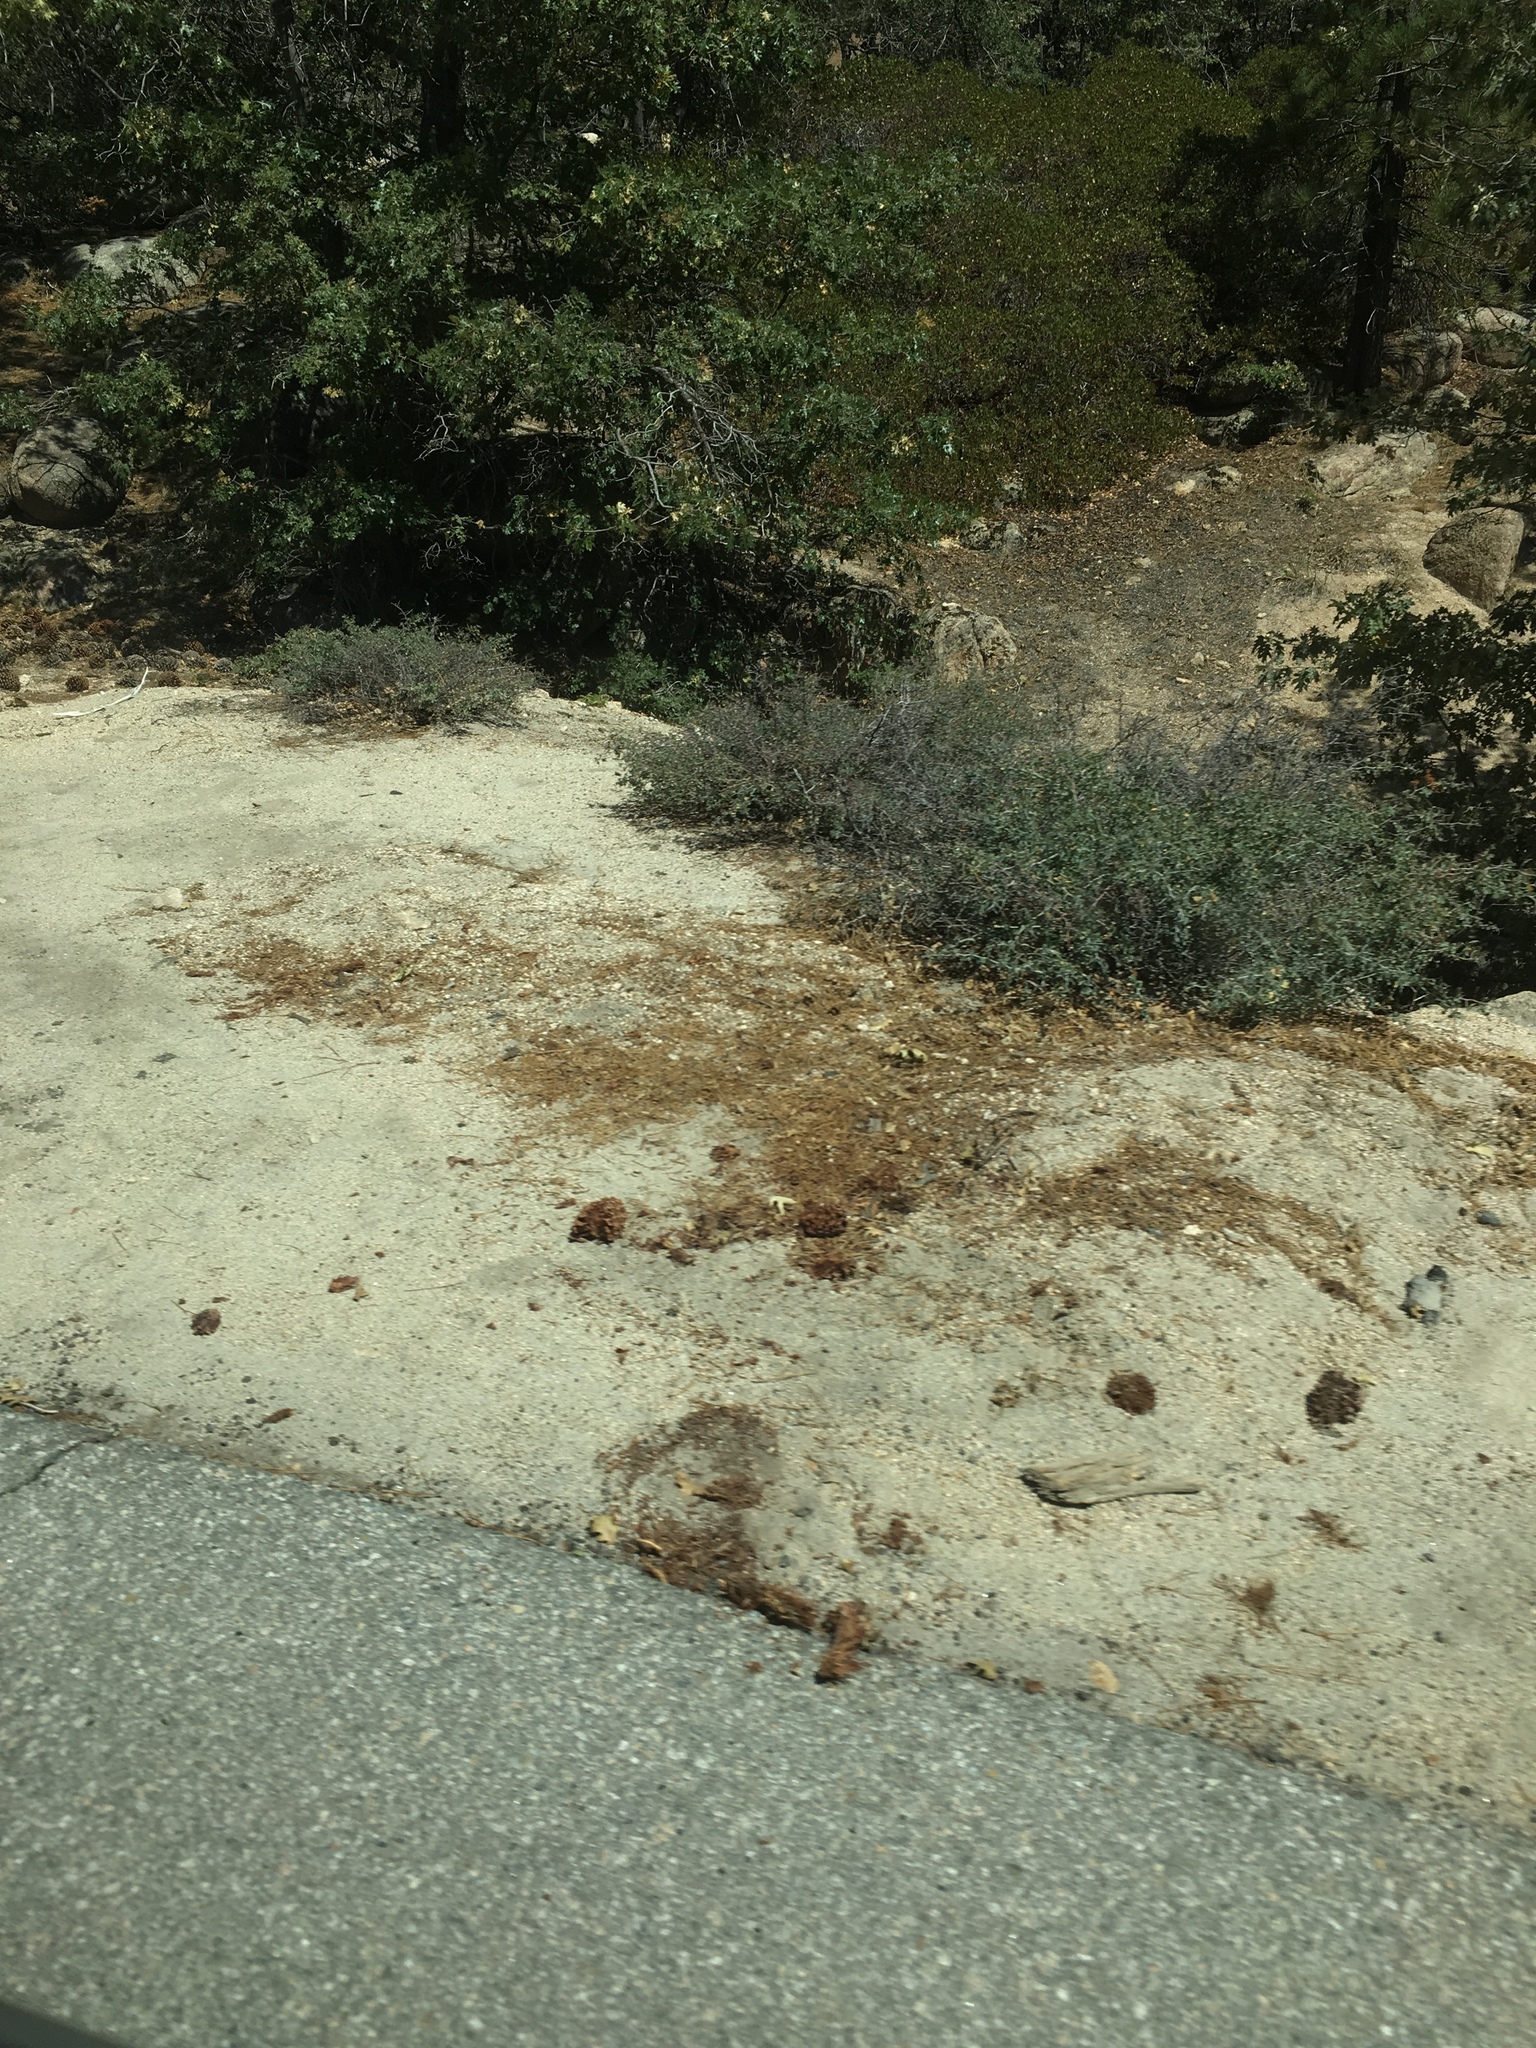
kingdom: Plantae
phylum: Tracheophyta
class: Magnoliopsida
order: Rosales
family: Rhamnaceae
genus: Ceanothus
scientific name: Ceanothus cordulatus
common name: Mountain whitethorn
